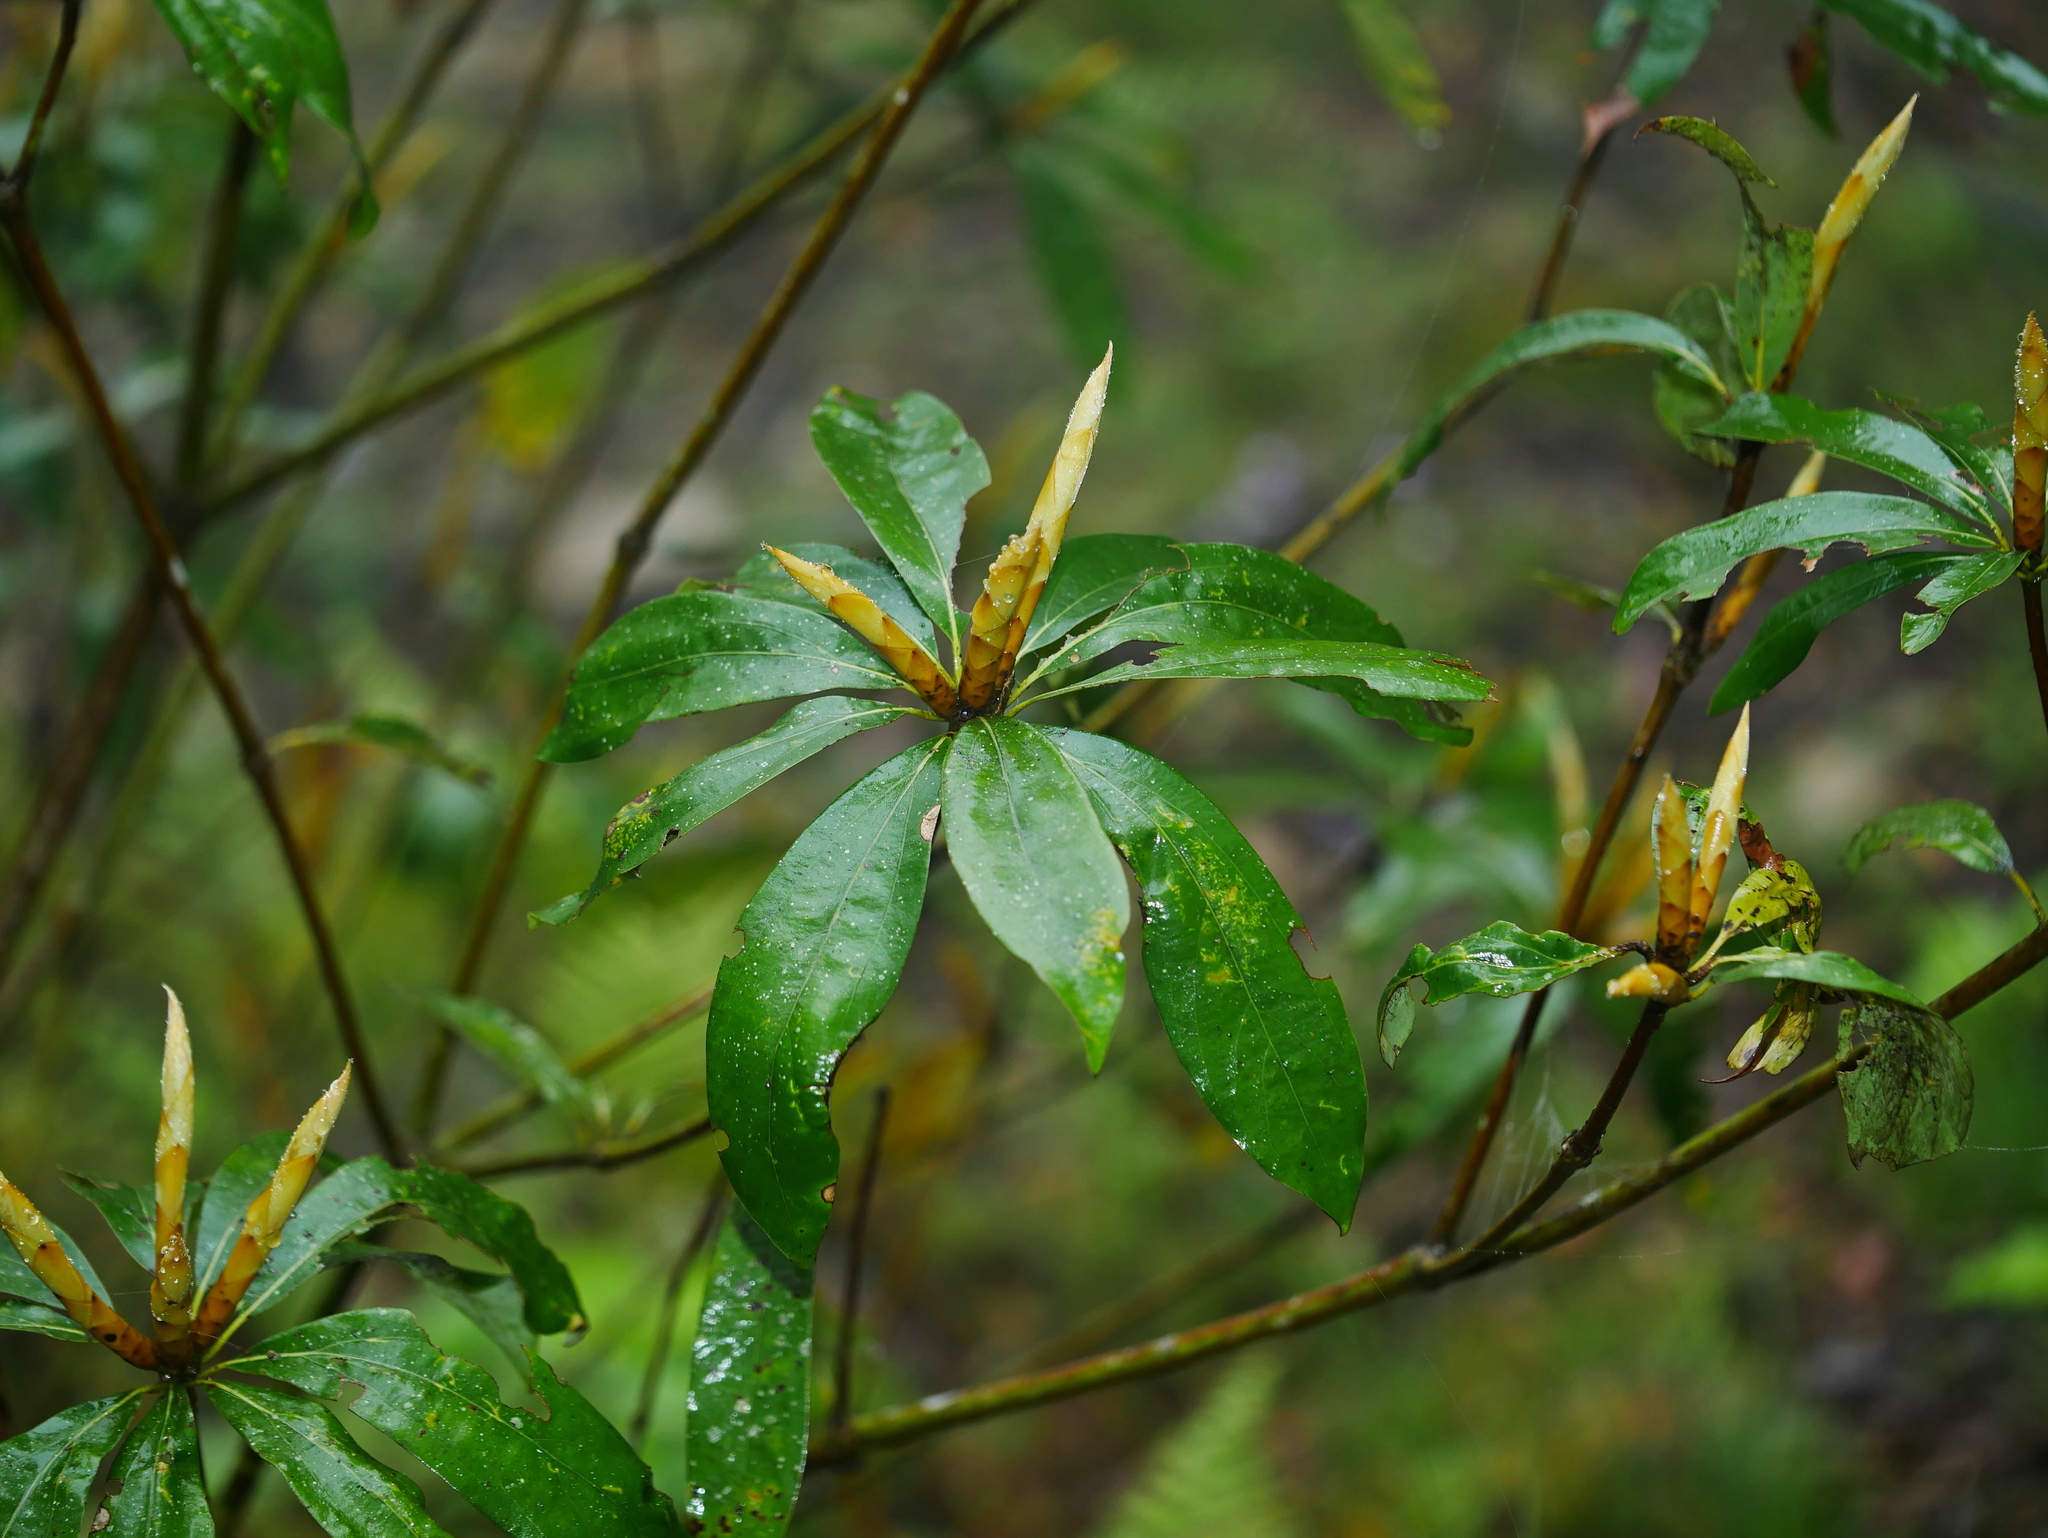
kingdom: Plantae
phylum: Tracheophyta
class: Magnoliopsida
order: Laurales
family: Lauraceae
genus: Neolitsea
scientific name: Neolitsea konishii
